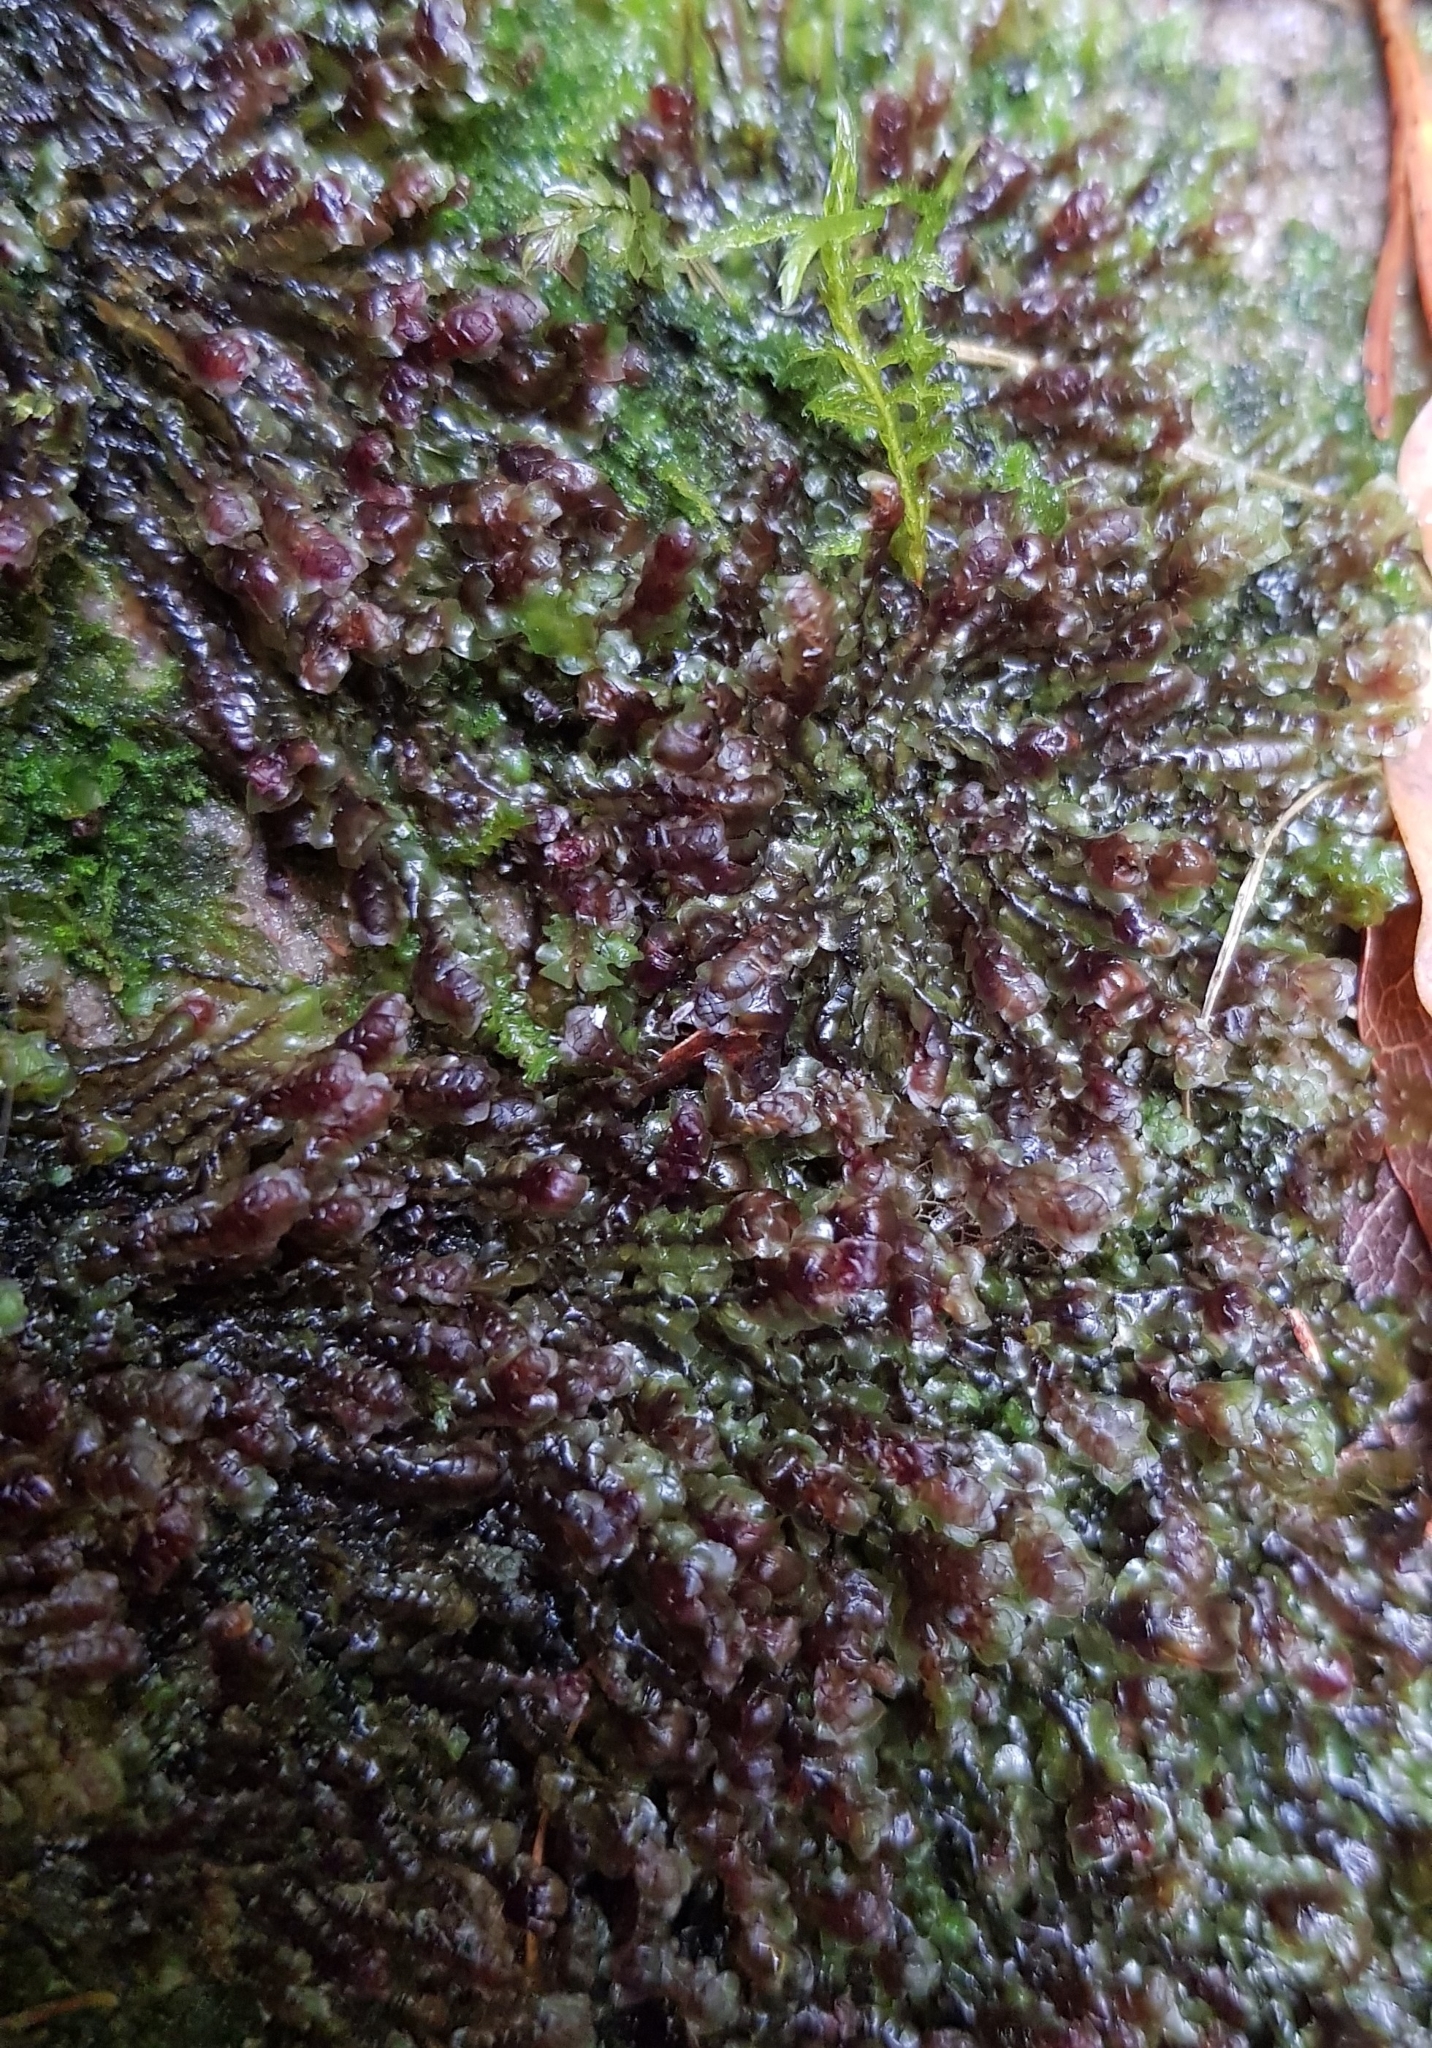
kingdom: Plantae
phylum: Marchantiophyta
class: Jungermanniopsida
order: Jungermanniales
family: Scapaniaceae
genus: Scapania
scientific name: Scapania undulata
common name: Water earwort
